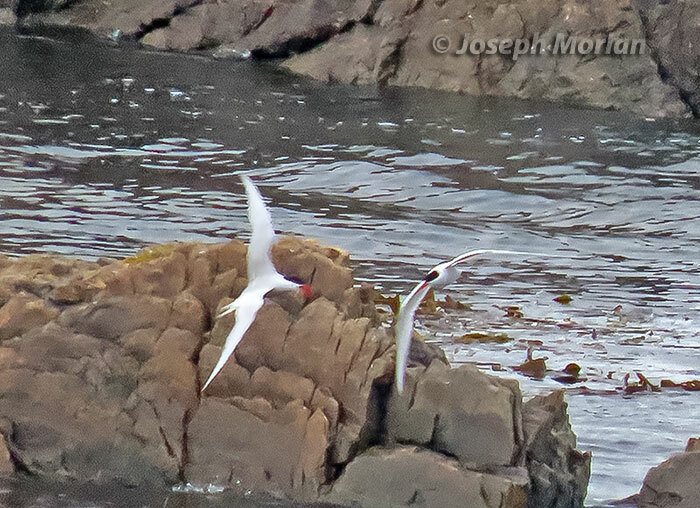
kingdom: Animalia
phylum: Chordata
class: Aves
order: Charadriiformes
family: Laridae
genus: Sterna
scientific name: Sterna hirundinacea
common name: South american tern
